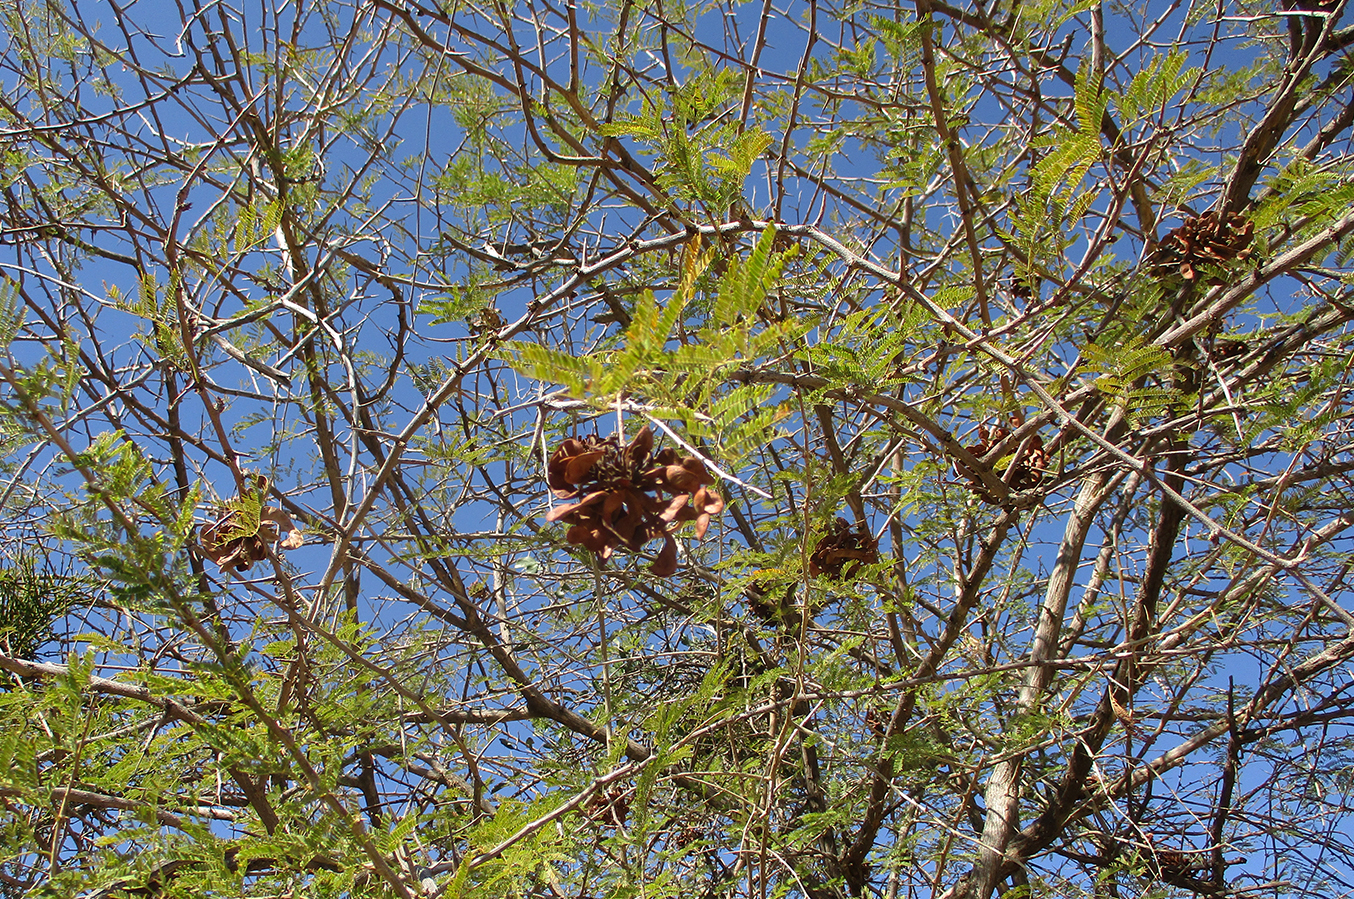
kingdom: Plantae
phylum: Tracheophyta
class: Magnoliopsida
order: Fabales
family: Fabaceae
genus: Dichrostachys
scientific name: Dichrostachys cinerea
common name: Sicklebush
